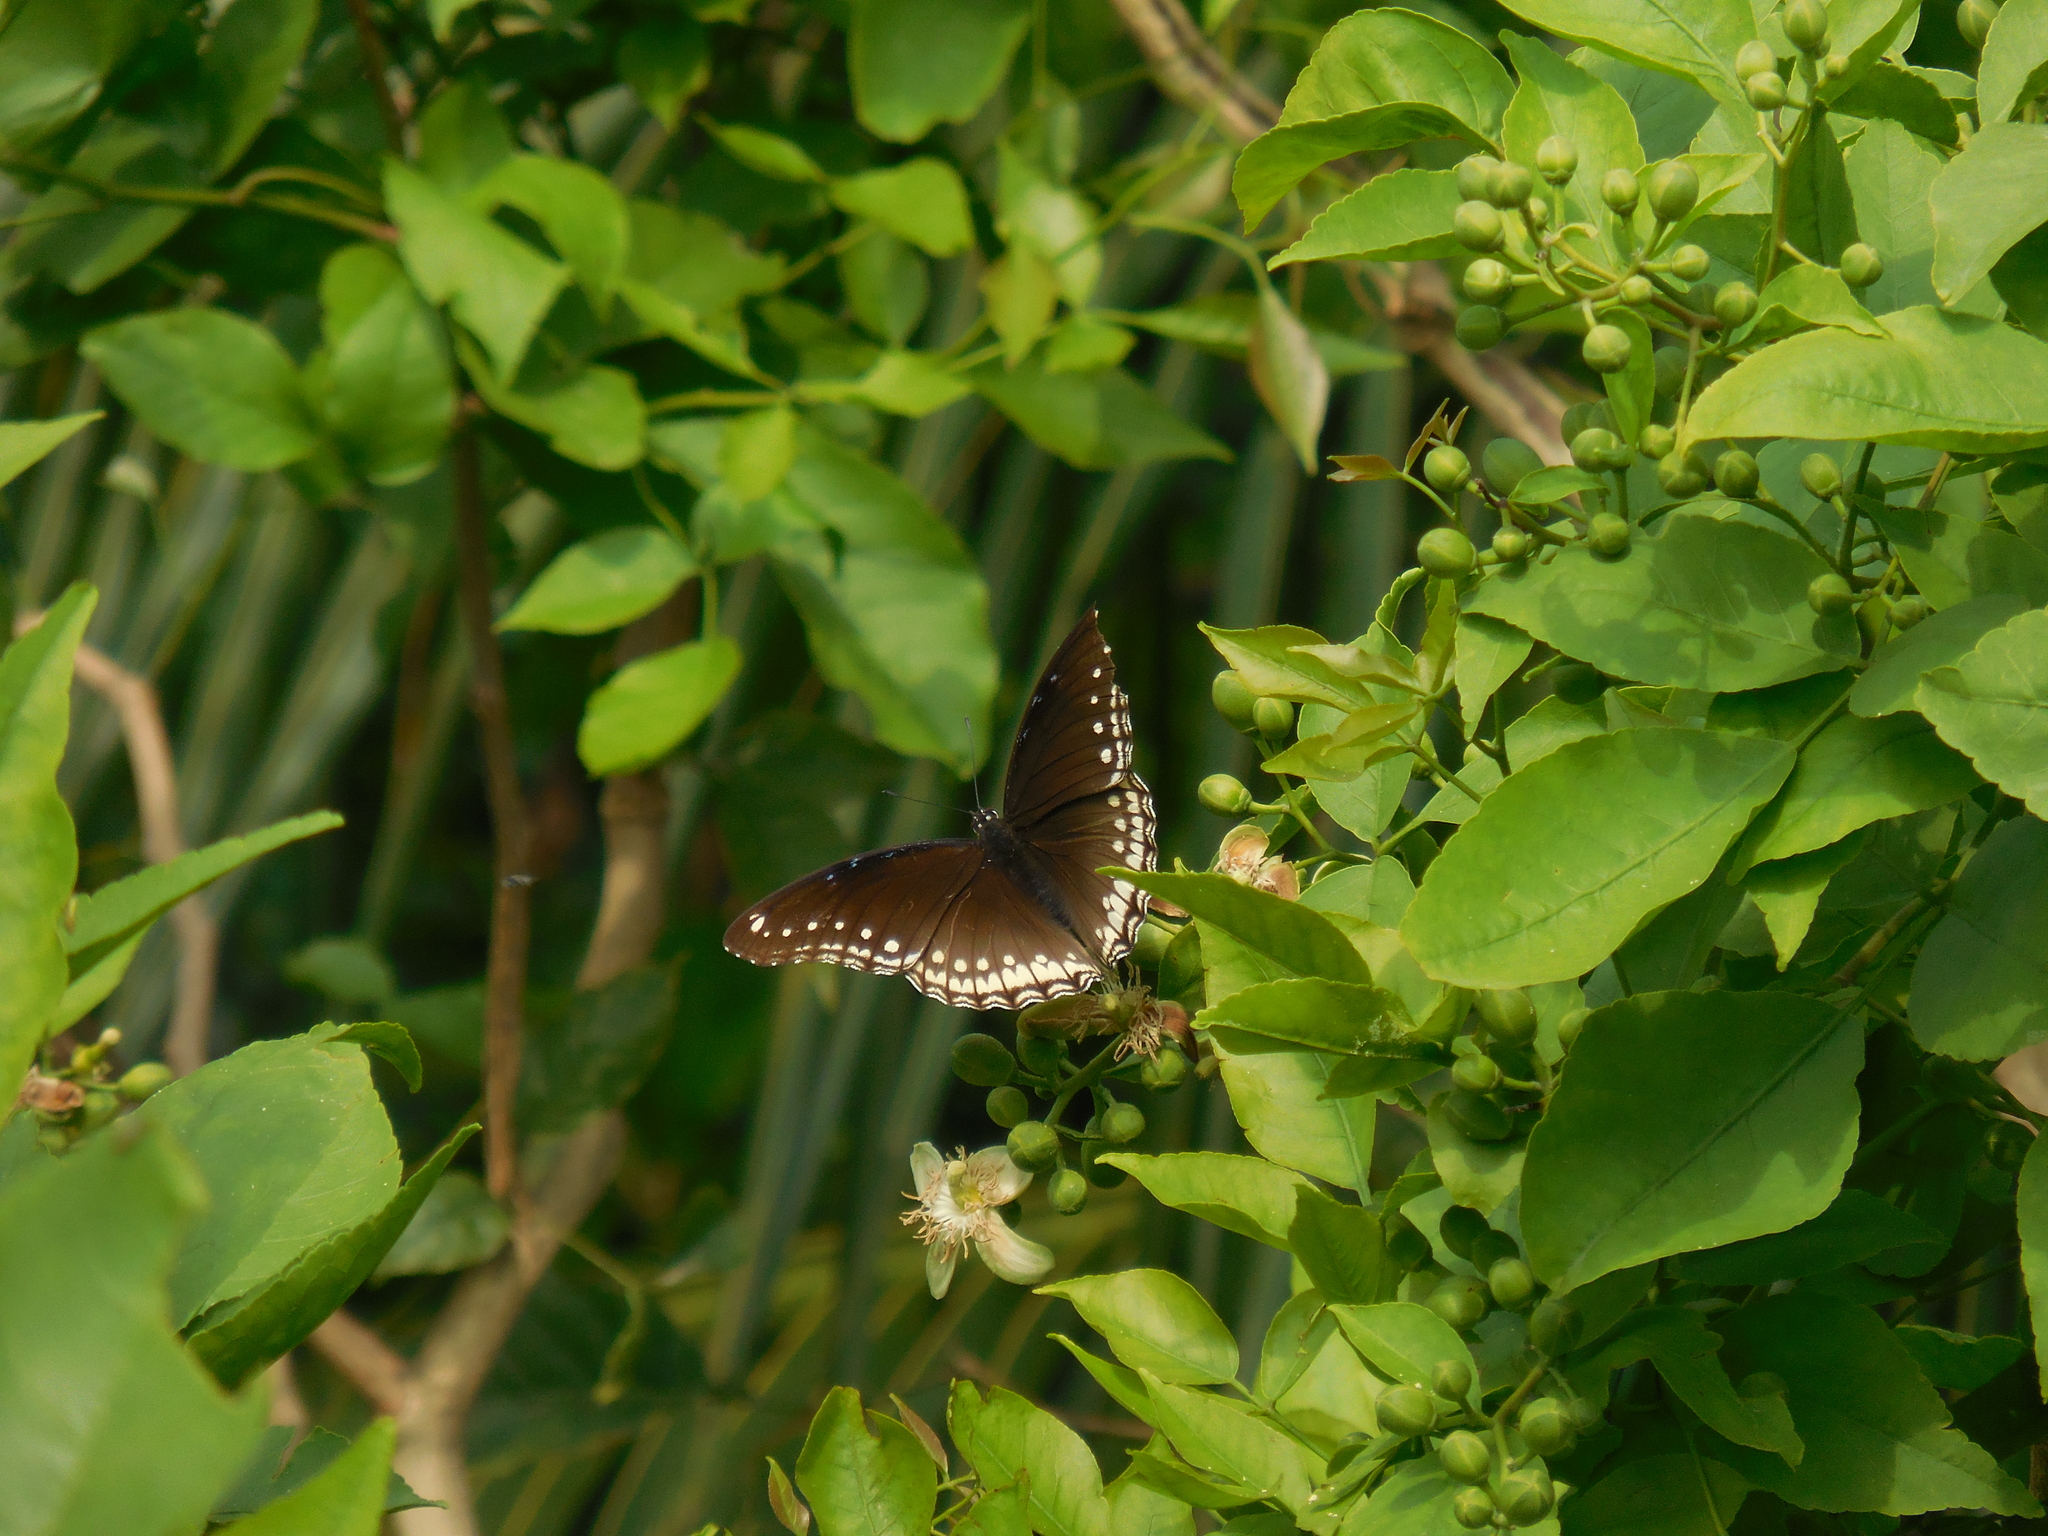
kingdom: Animalia
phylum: Arthropoda
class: Insecta
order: Lepidoptera
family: Nymphalidae
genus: Hypolimnas
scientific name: Hypolimnas bolina
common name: Great eggfly
